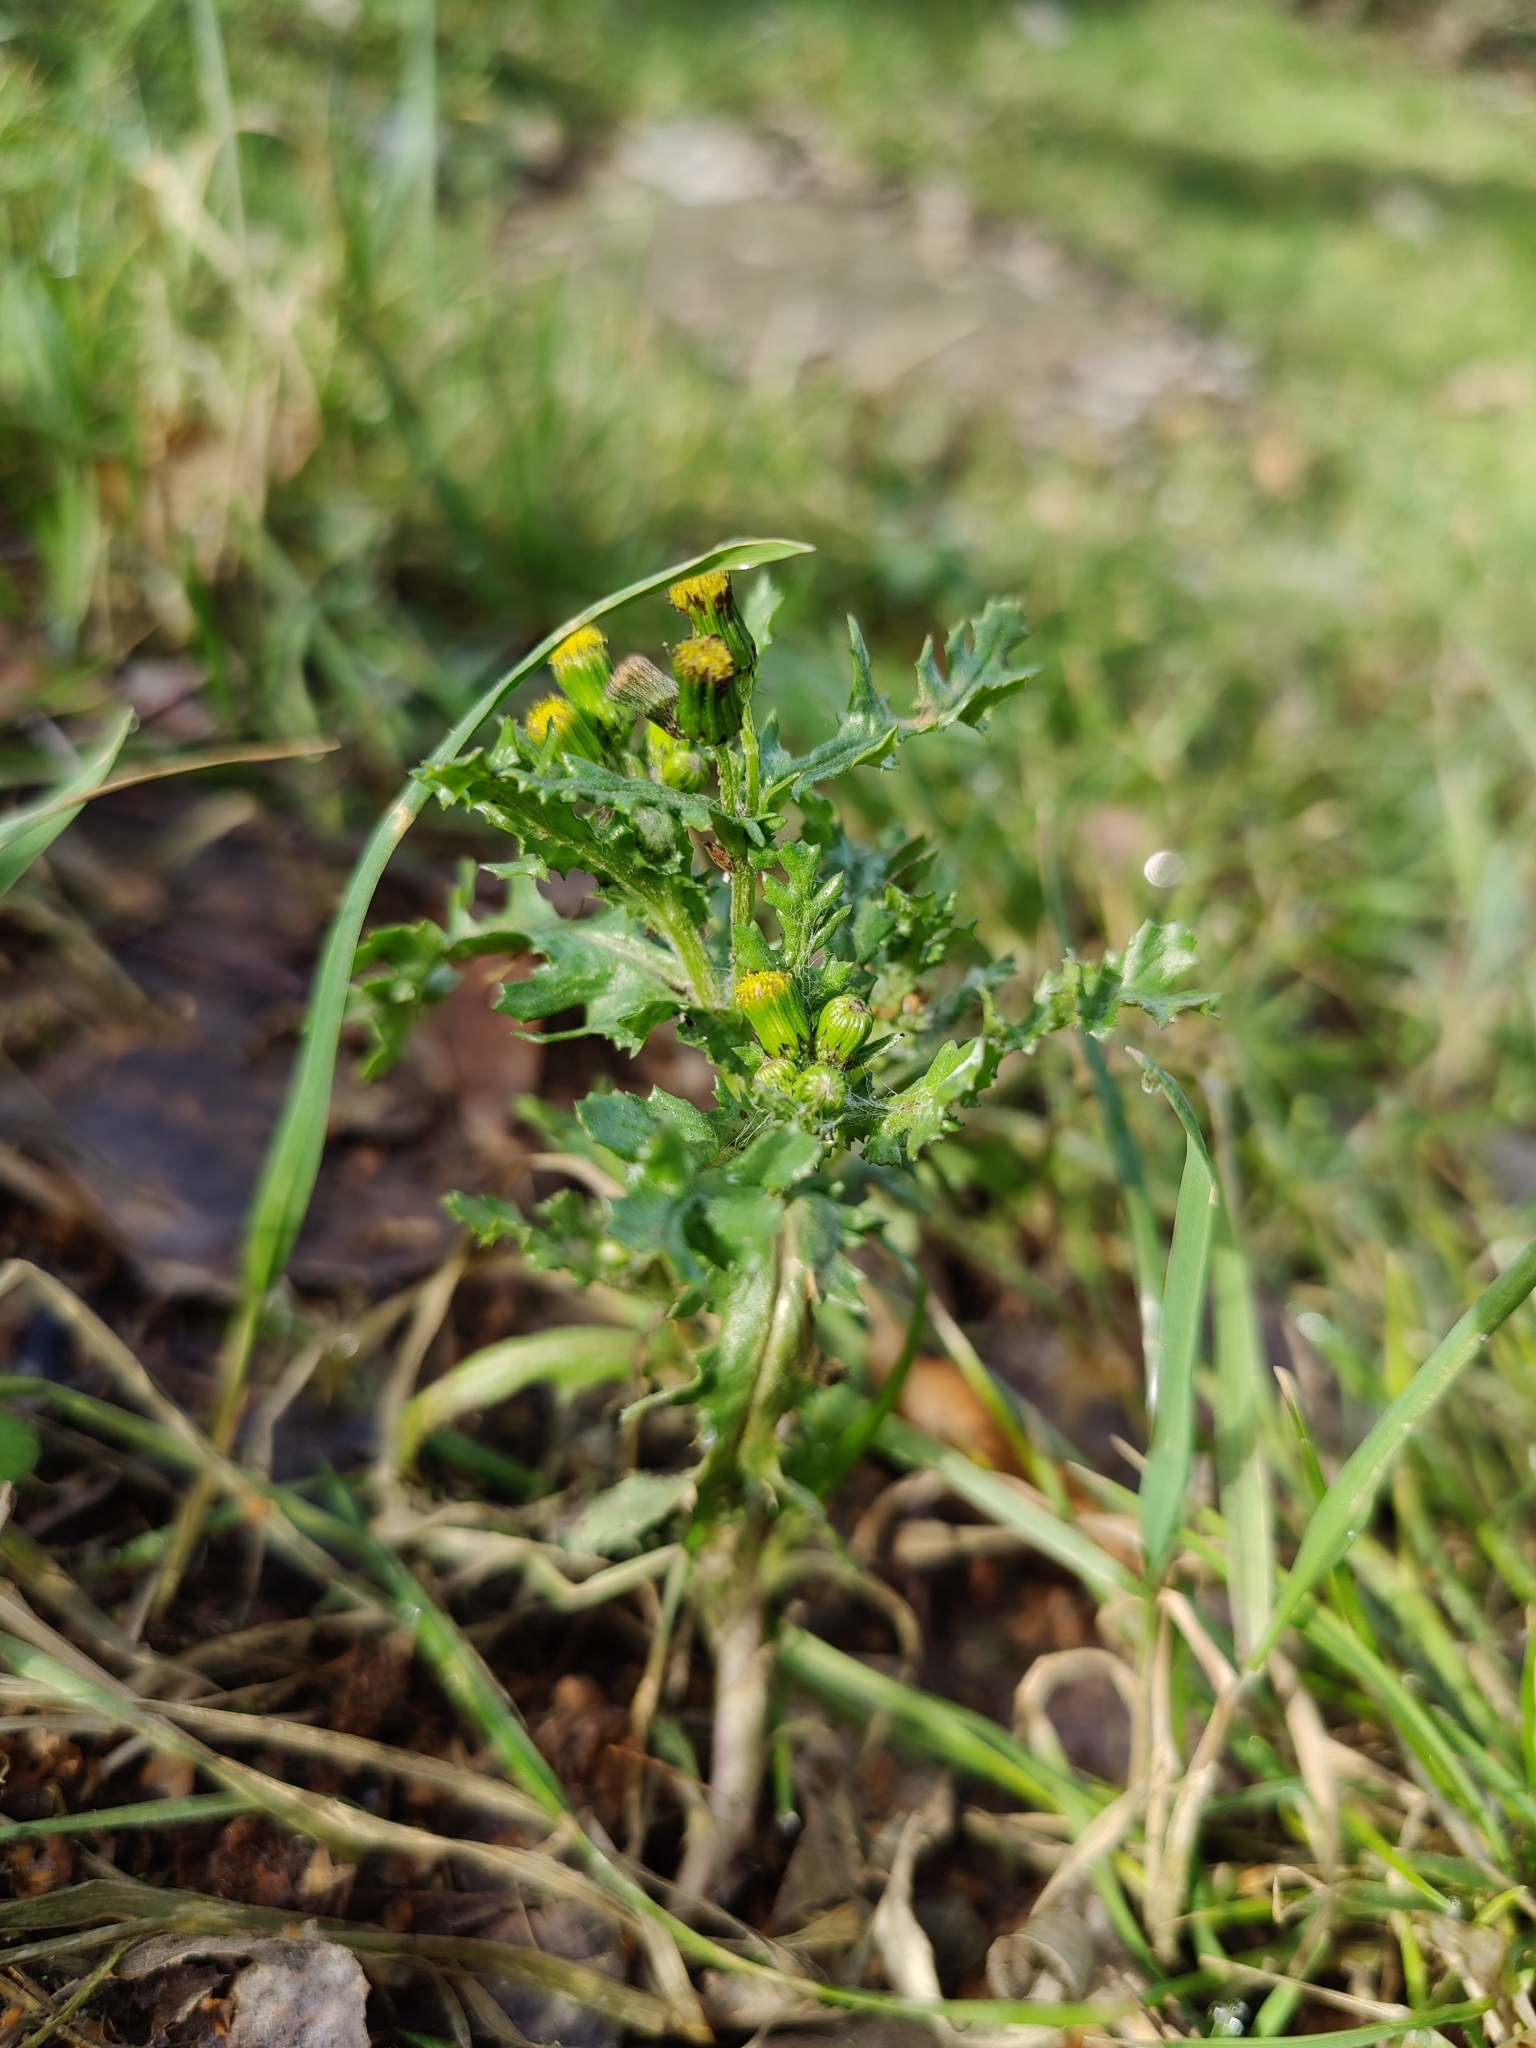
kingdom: Plantae
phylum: Tracheophyta
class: Magnoliopsida
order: Asterales
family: Asteraceae
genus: Senecio
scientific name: Senecio vulgaris
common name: Old-man-in-the-spring
